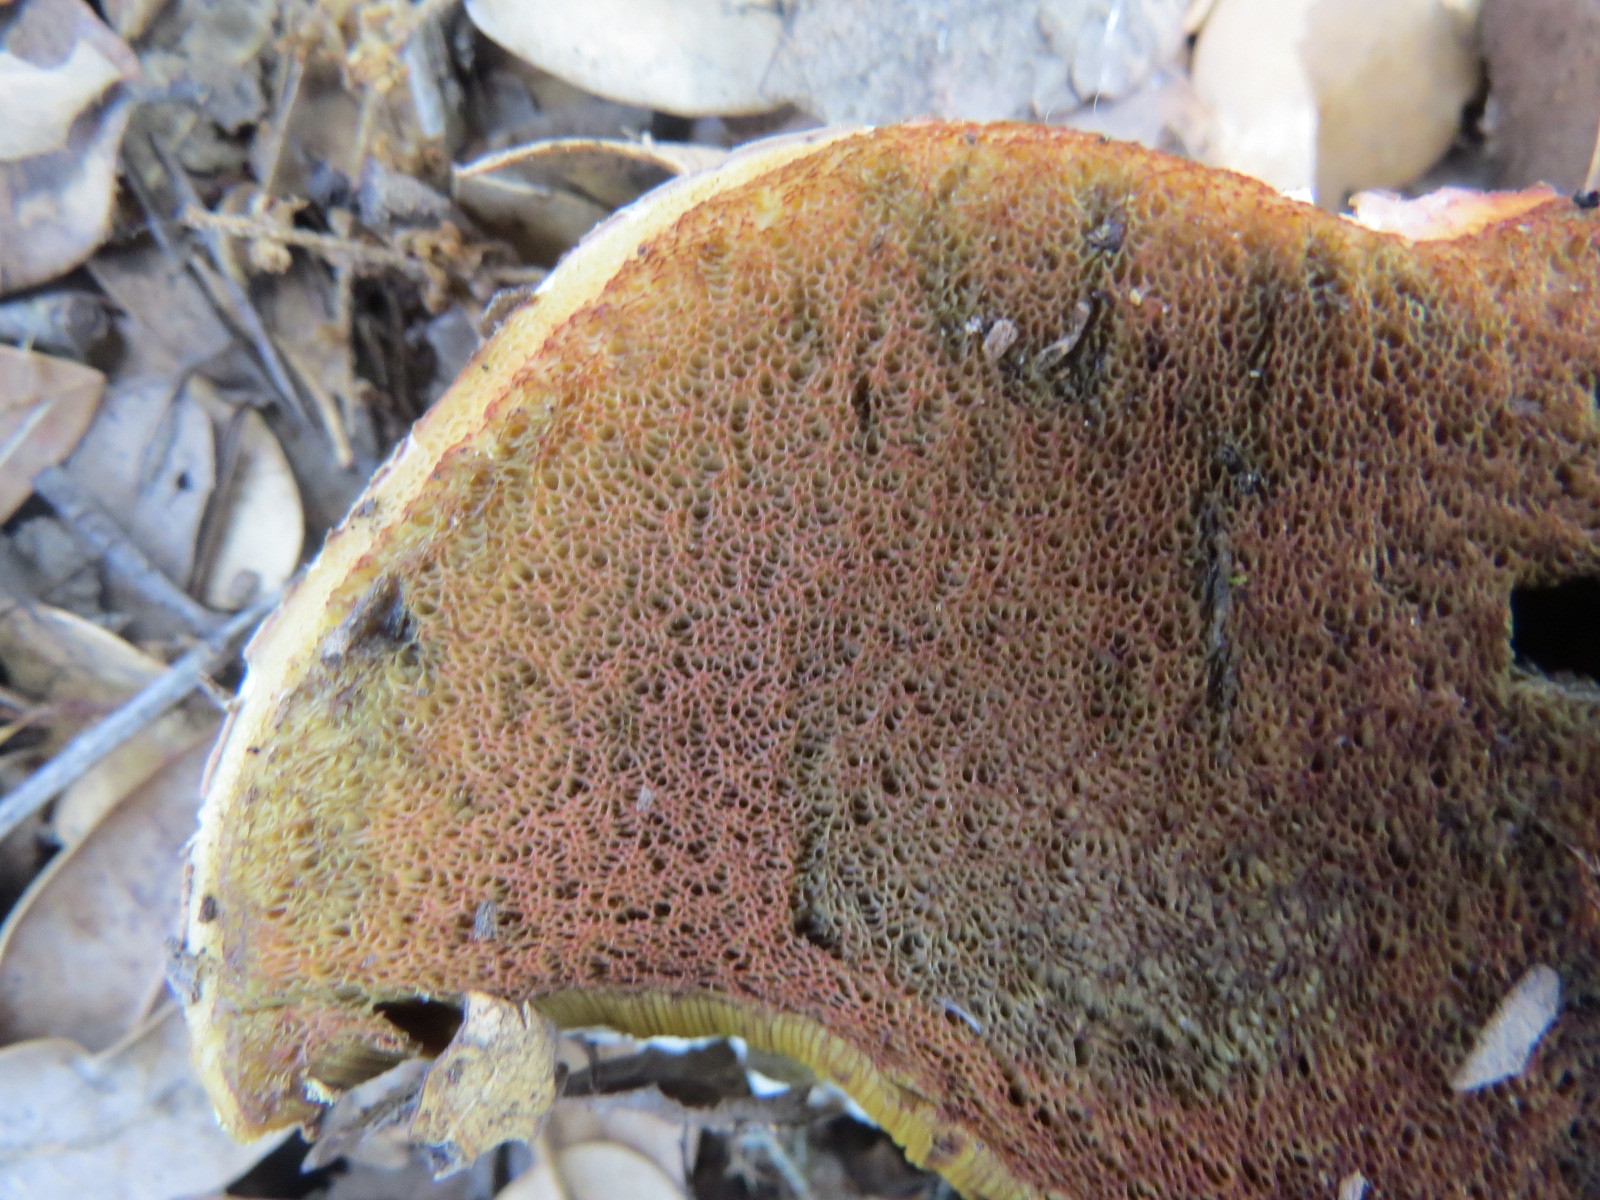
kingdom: Fungi
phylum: Basidiomycota
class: Agaricomycetes
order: Boletales
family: Boletaceae
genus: Rubroboletus
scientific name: Rubroboletus eastwoodiae
